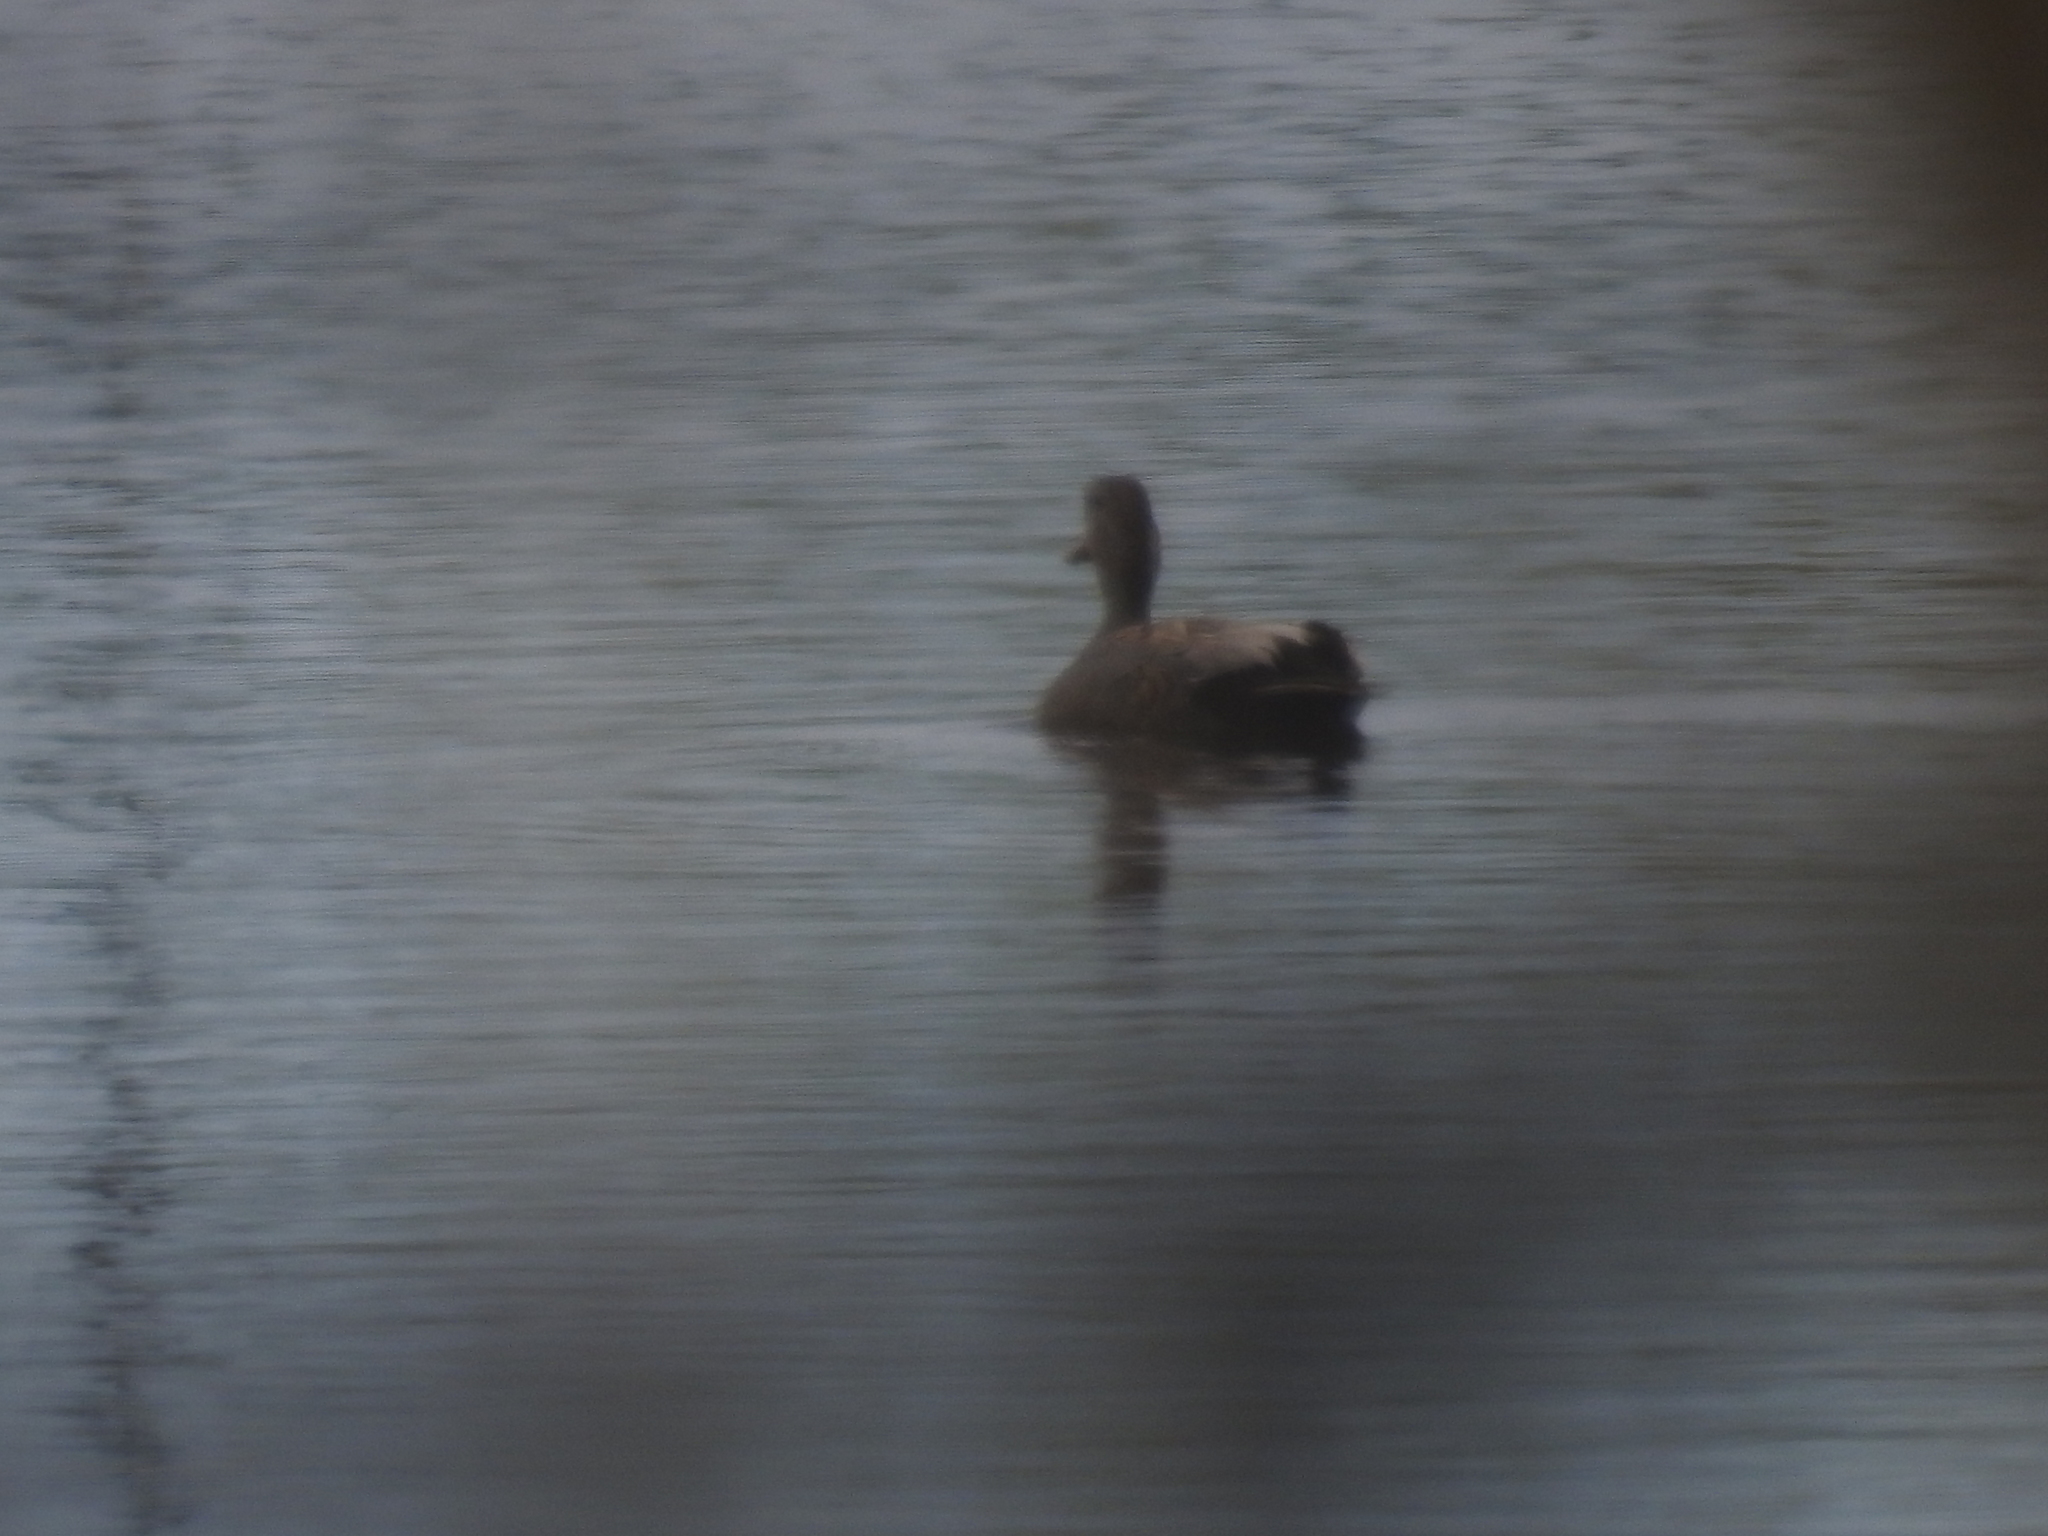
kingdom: Animalia
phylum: Chordata
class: Aves
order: Anseriformes
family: Anatidae
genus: Mareca
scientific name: Mareca strepera
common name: Gadwall
